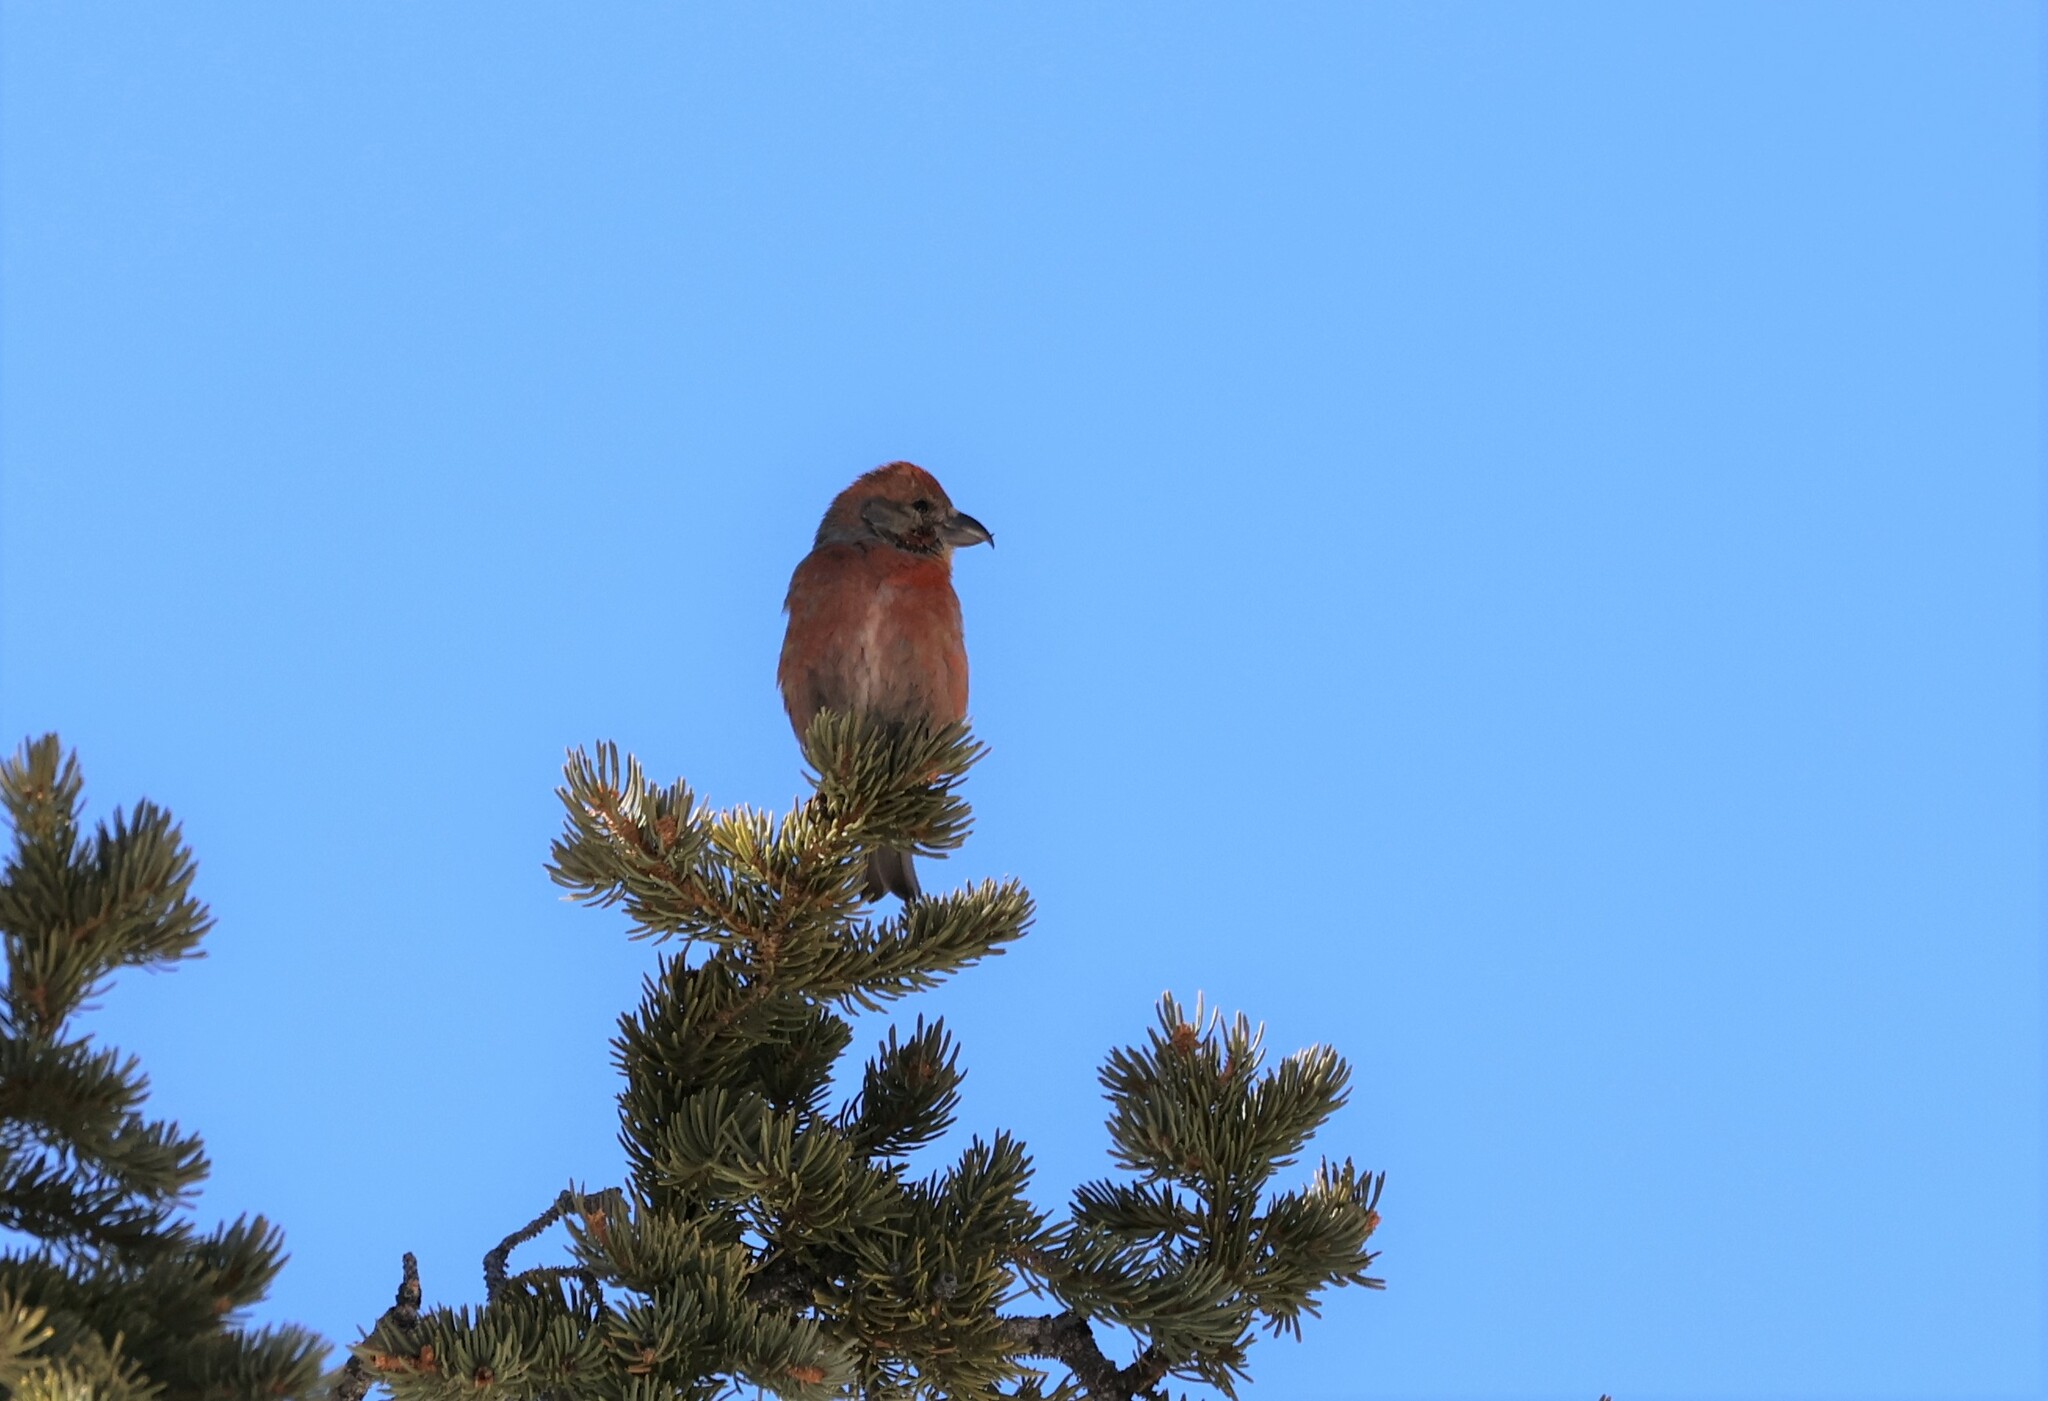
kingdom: Animalia
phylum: Chordata
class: Aves
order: Passeriformes
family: Fringillidae
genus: Loxia
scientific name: Loxia curvirostra
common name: Red crossbill
